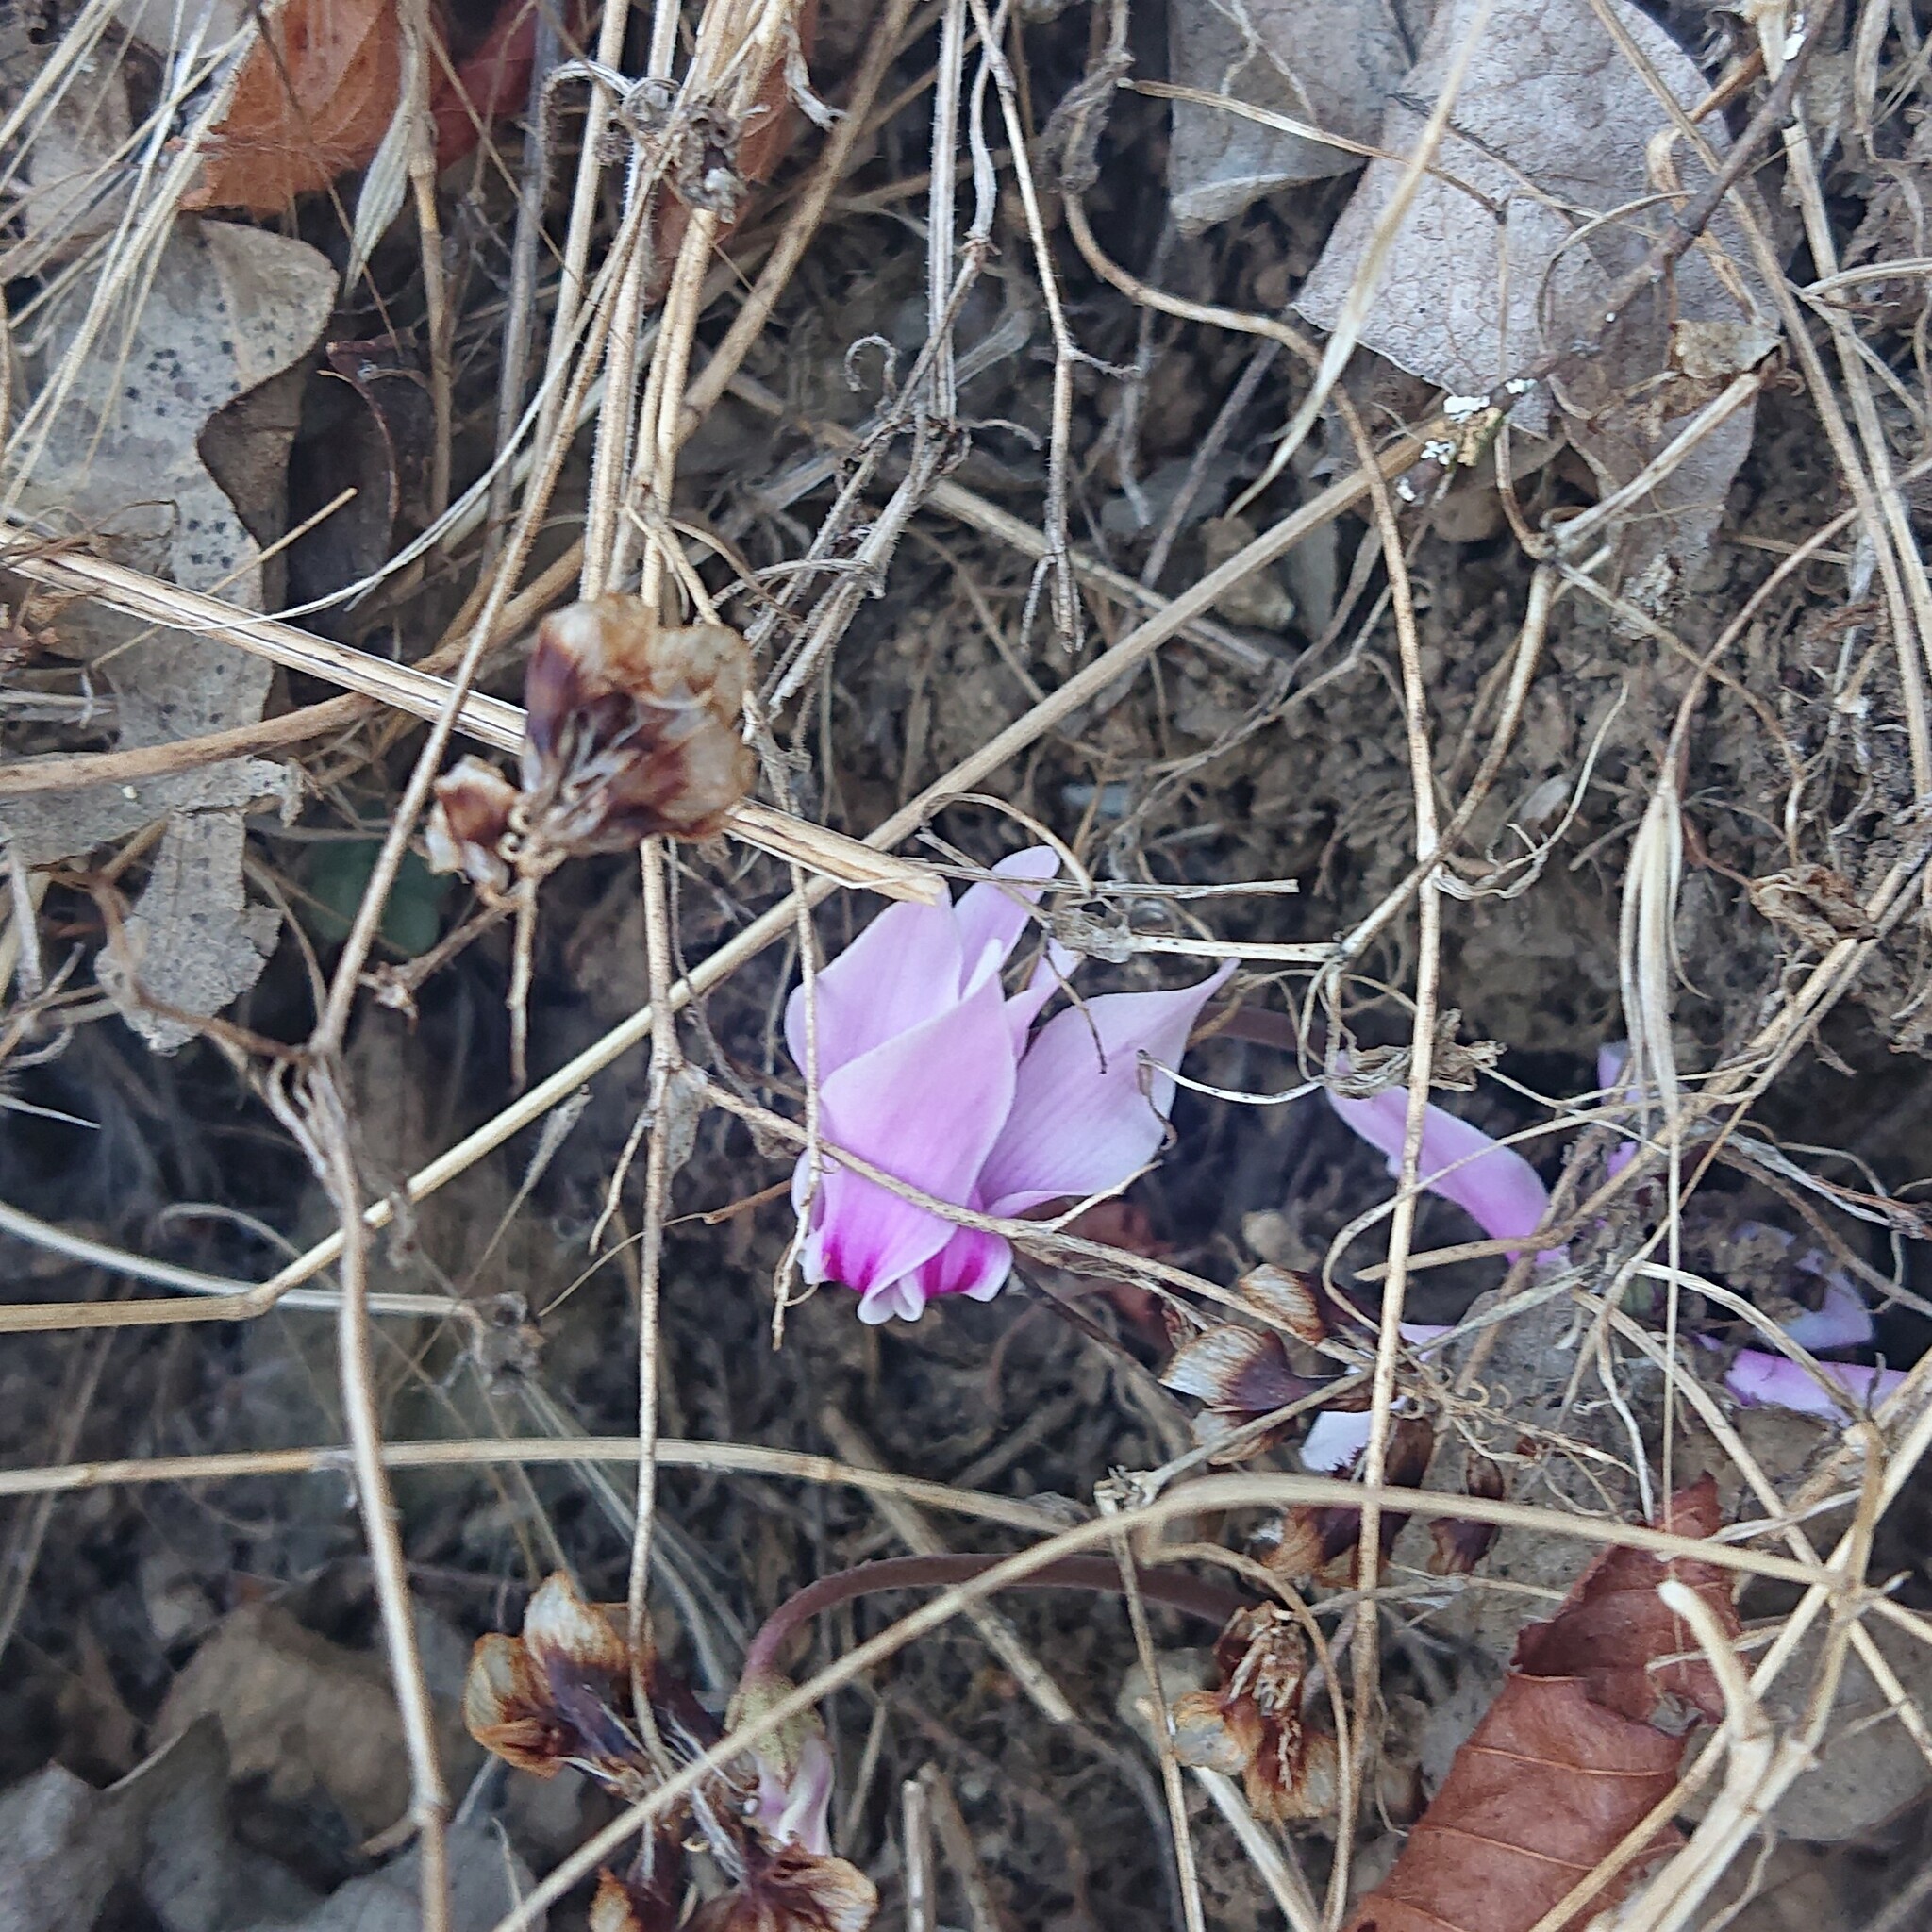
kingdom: Plantae
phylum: Tracheophyta
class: Magnoliopsida
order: Ericales
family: Primulaceae
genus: Cyclamen
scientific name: Cyclamen hederifolium
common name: Sowbread
